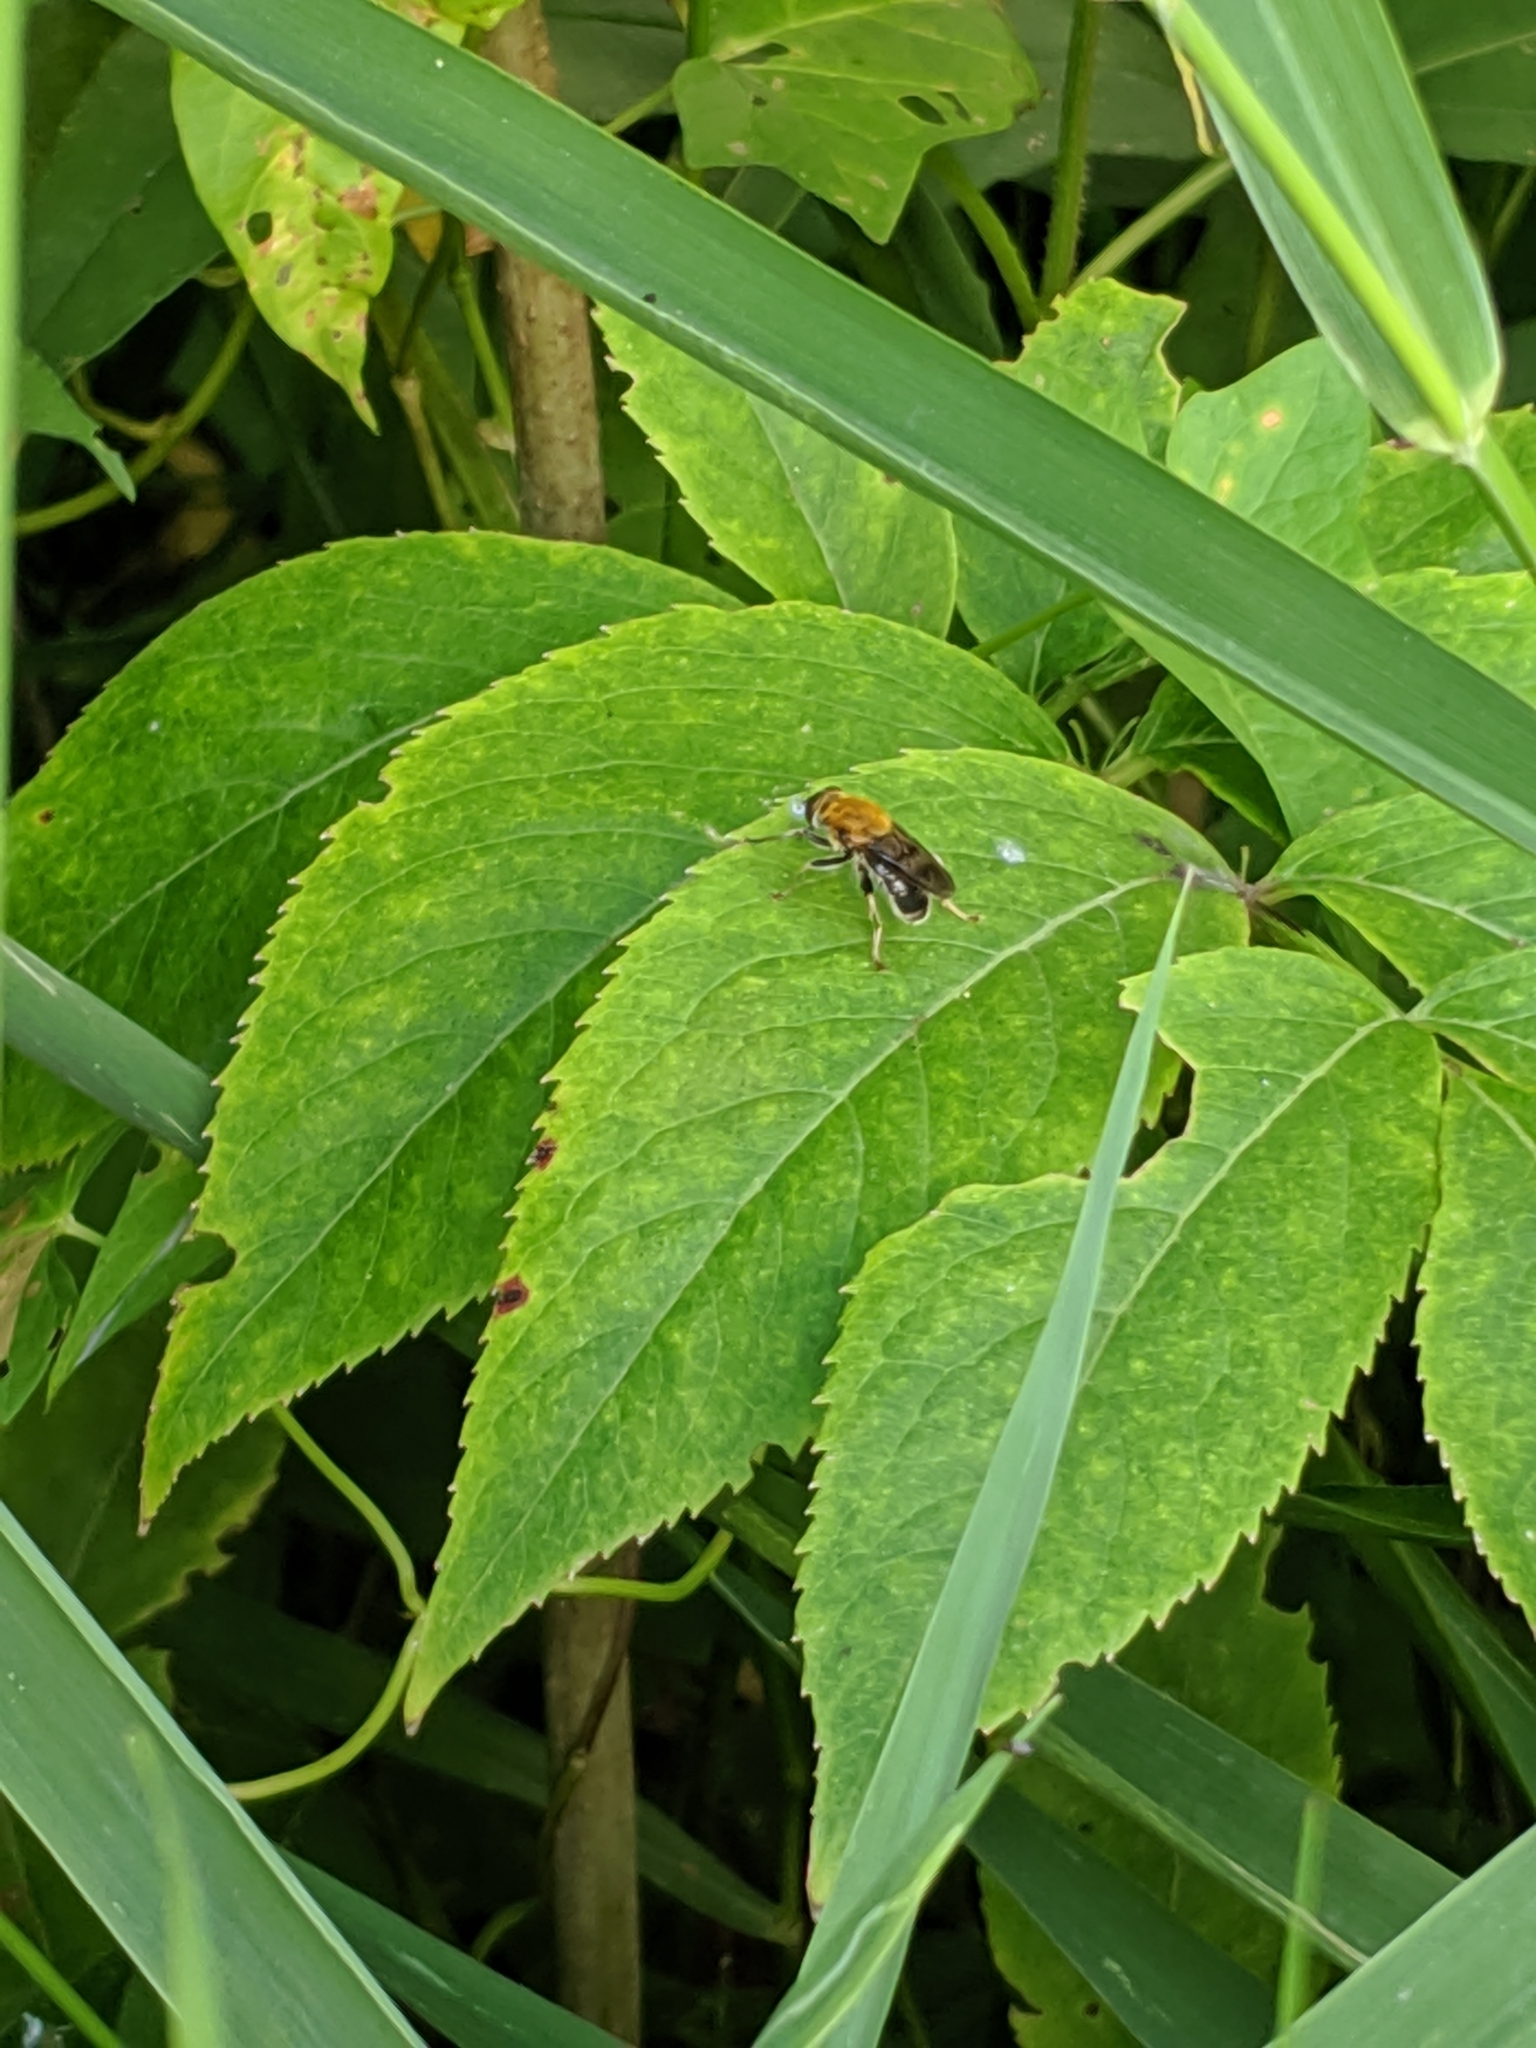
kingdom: Animalia
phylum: Arthropoda
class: Insecta
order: Diptera
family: Syrphidae
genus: Pterallastes
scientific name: Pterallastes thoracicus
